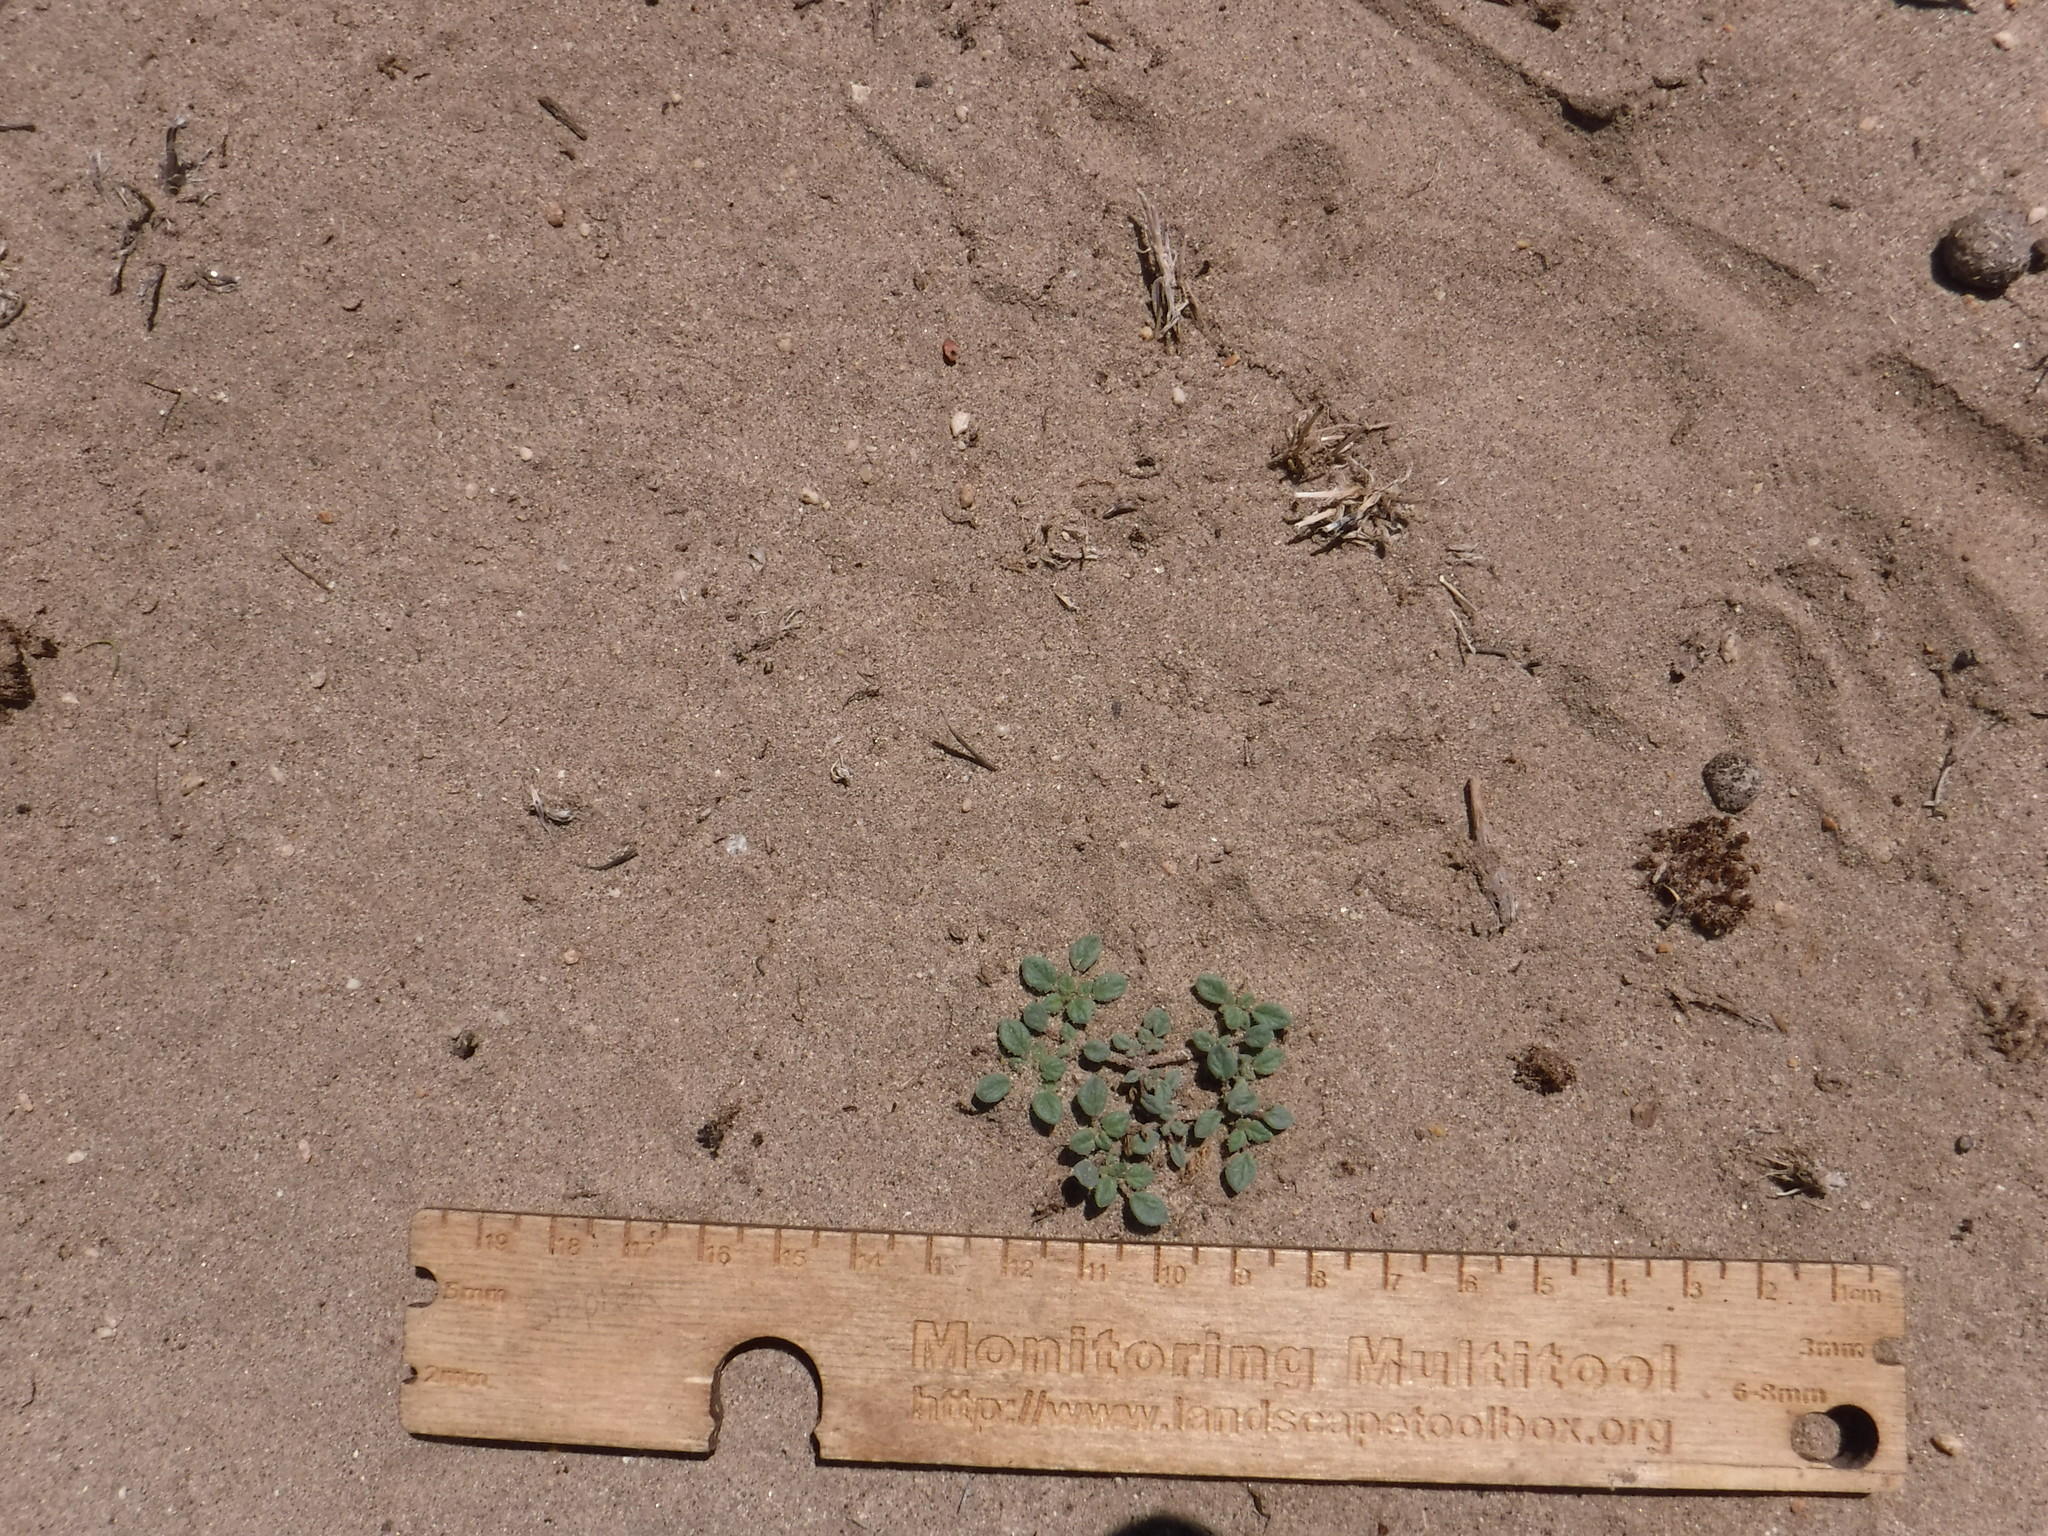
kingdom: Plantae
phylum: Tracheophyta
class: Magnoliopsida
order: Boraginales
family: Ehretiaceae
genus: Tiquilia
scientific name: Tiquilia nuttallii
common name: Rosette tiquilia
